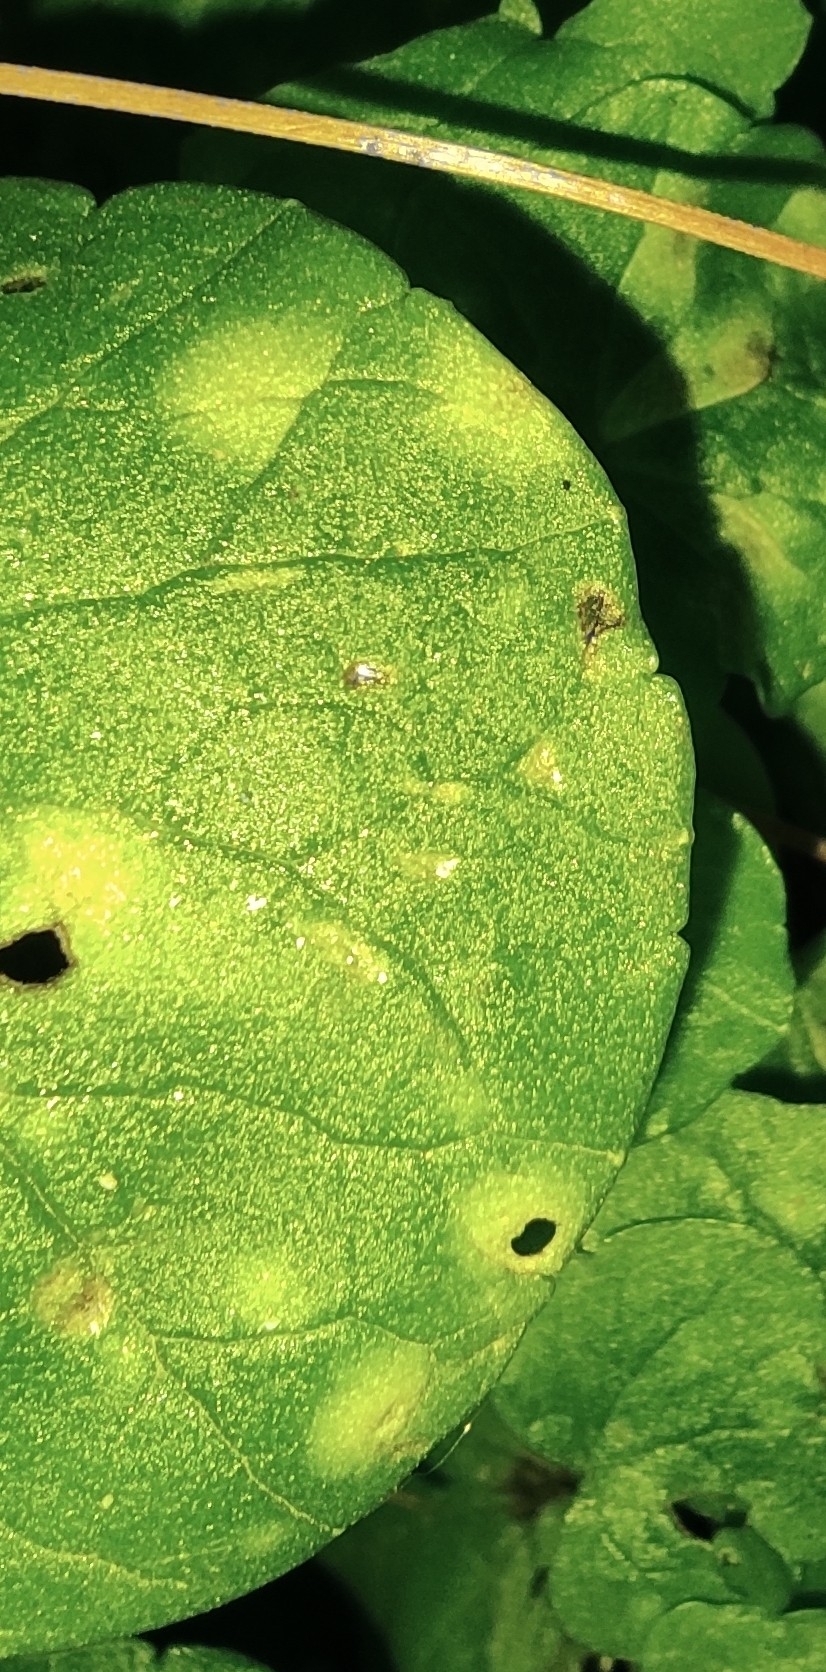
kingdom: Fungi
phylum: Basidiomycota
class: Exobasidiomycetes
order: Entylomatales
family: Entylomataceae
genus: Entyloma
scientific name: Entyloma ficariae
